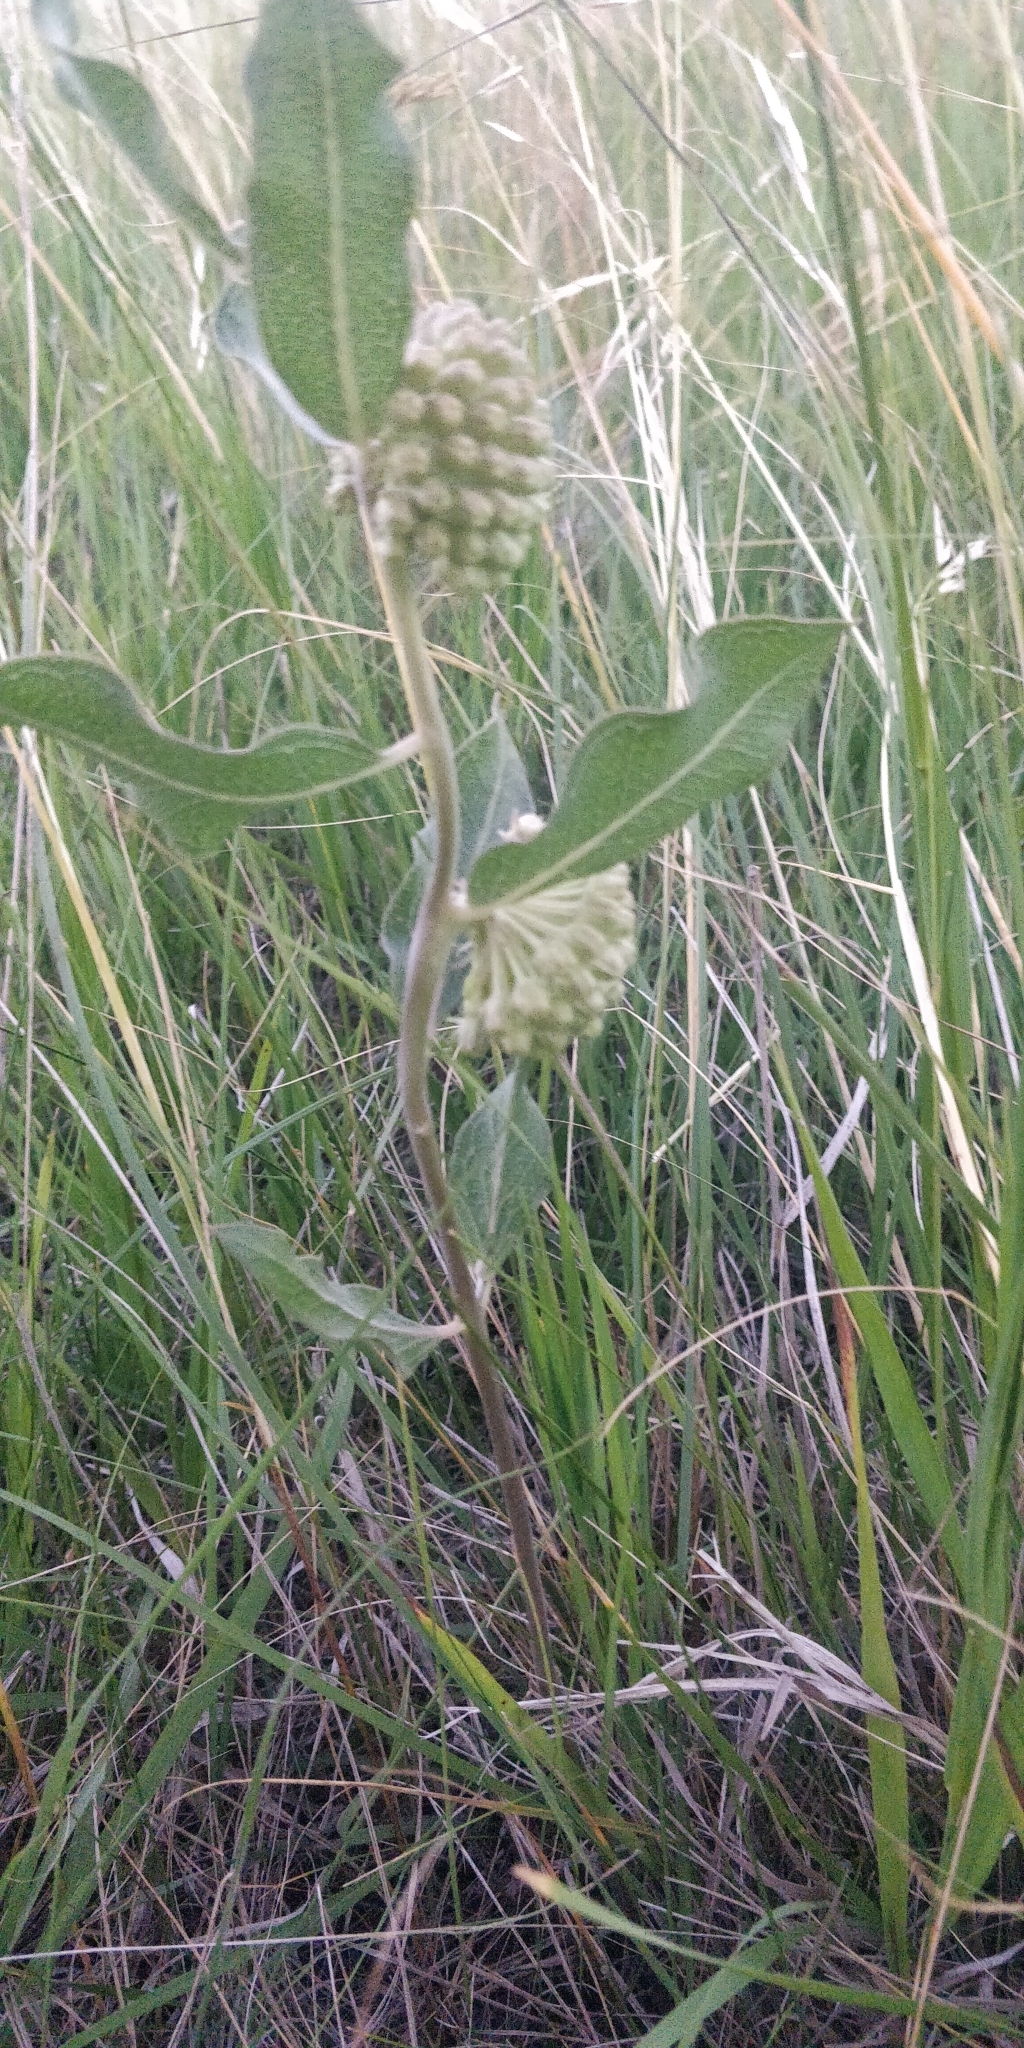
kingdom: Plantae
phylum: Tracheophyta
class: Magnoliopsida
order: Gentianales
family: Apocynaceae
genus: Asclepias
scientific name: Asclepias viridiflora
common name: Green comet milkweed
